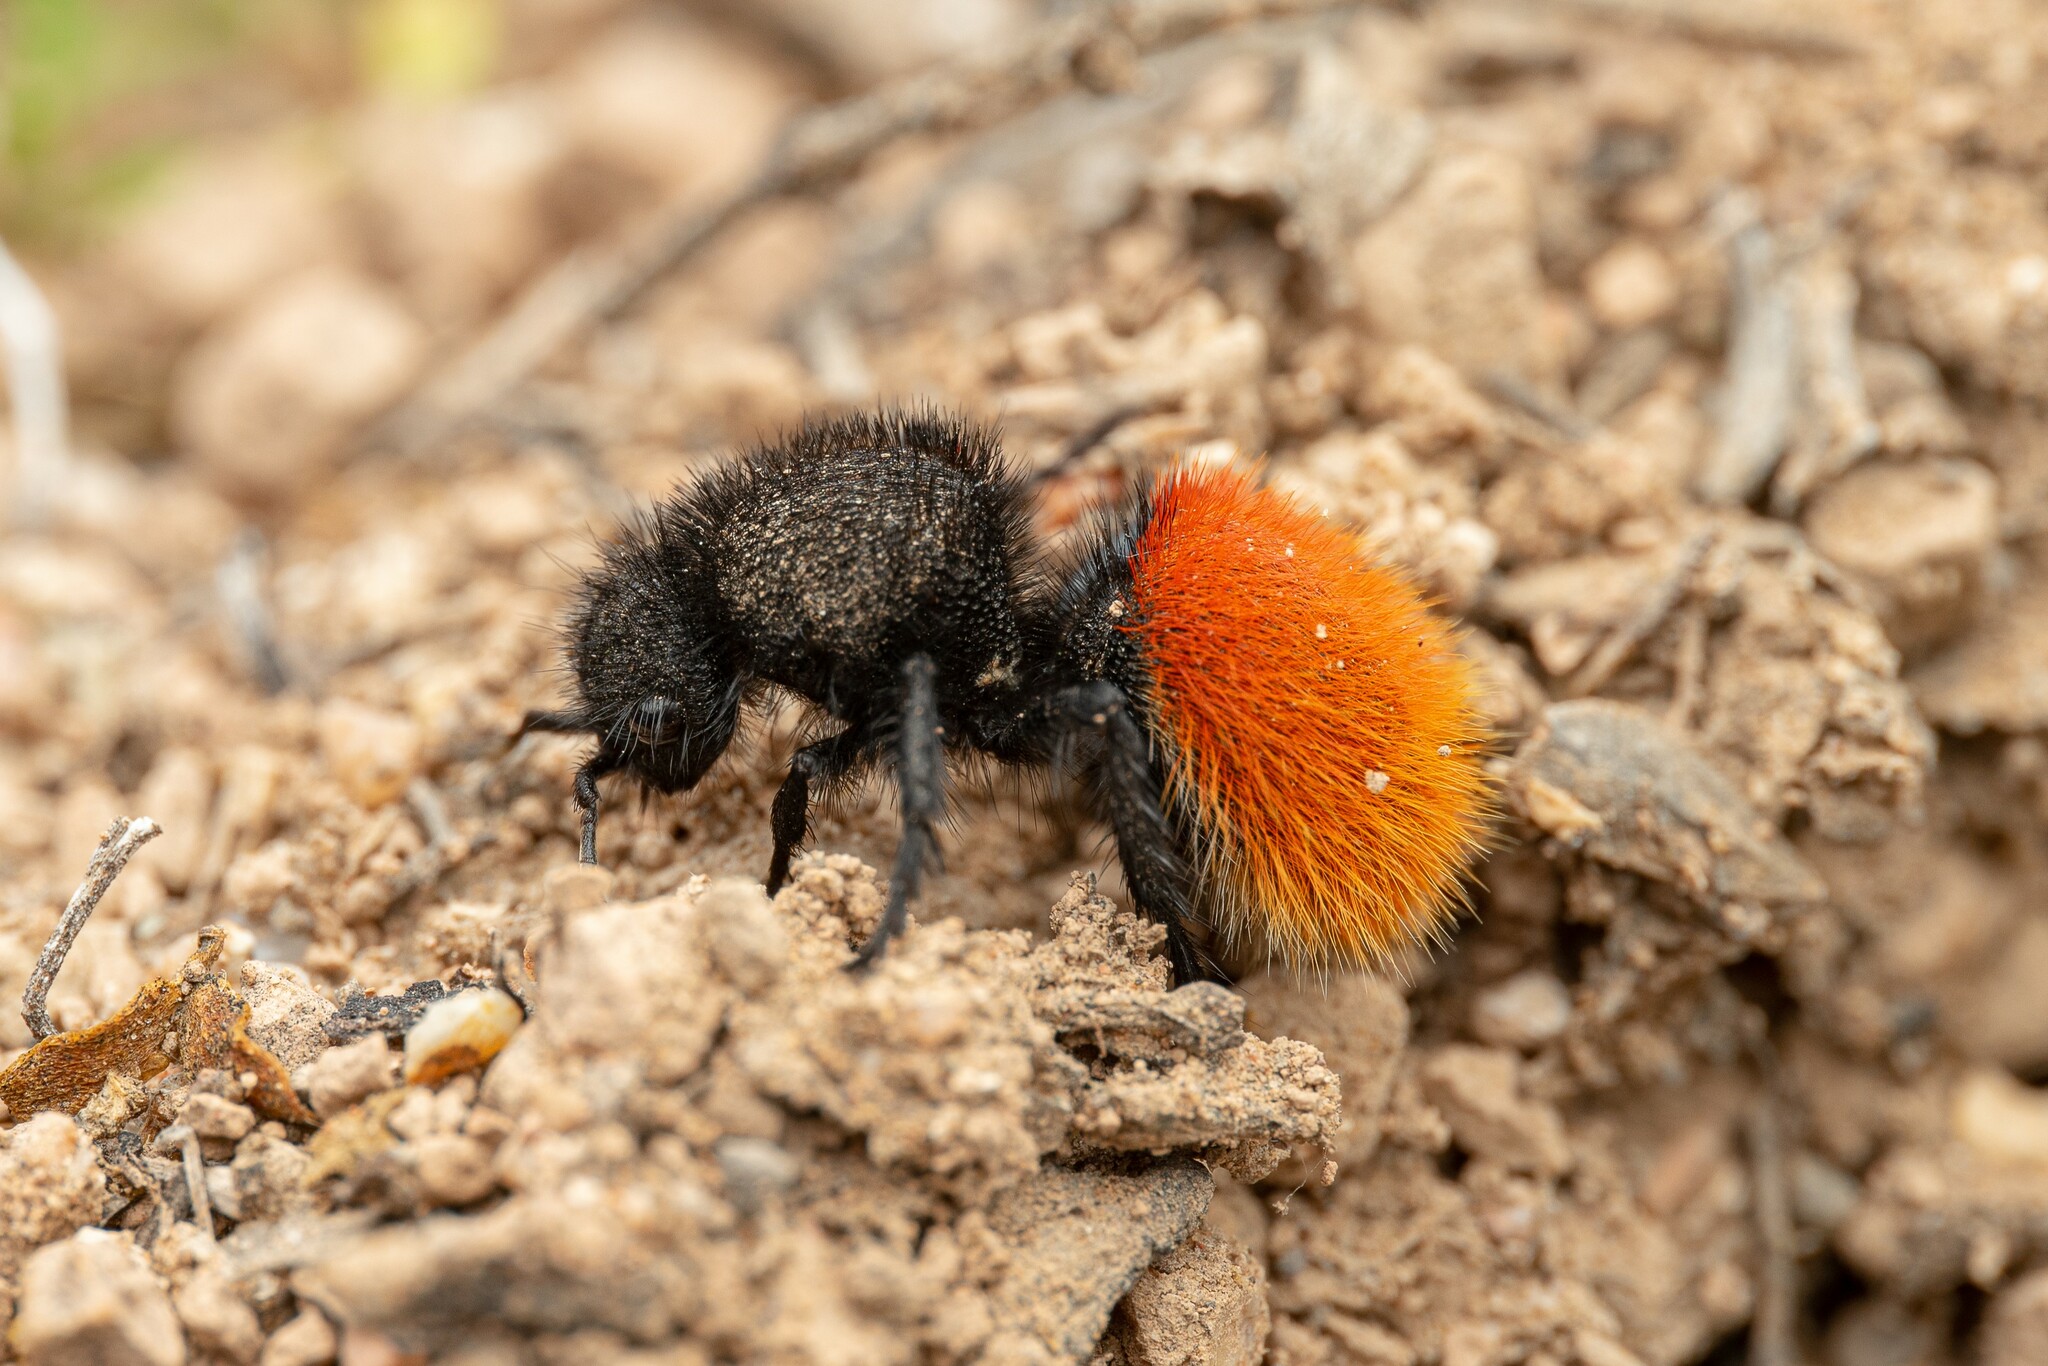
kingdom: Animalia
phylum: Arthropoda
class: Insecta
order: Hymenoptera
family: Mutillidae
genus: Dasymutilla
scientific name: Dasymutilla vestita
